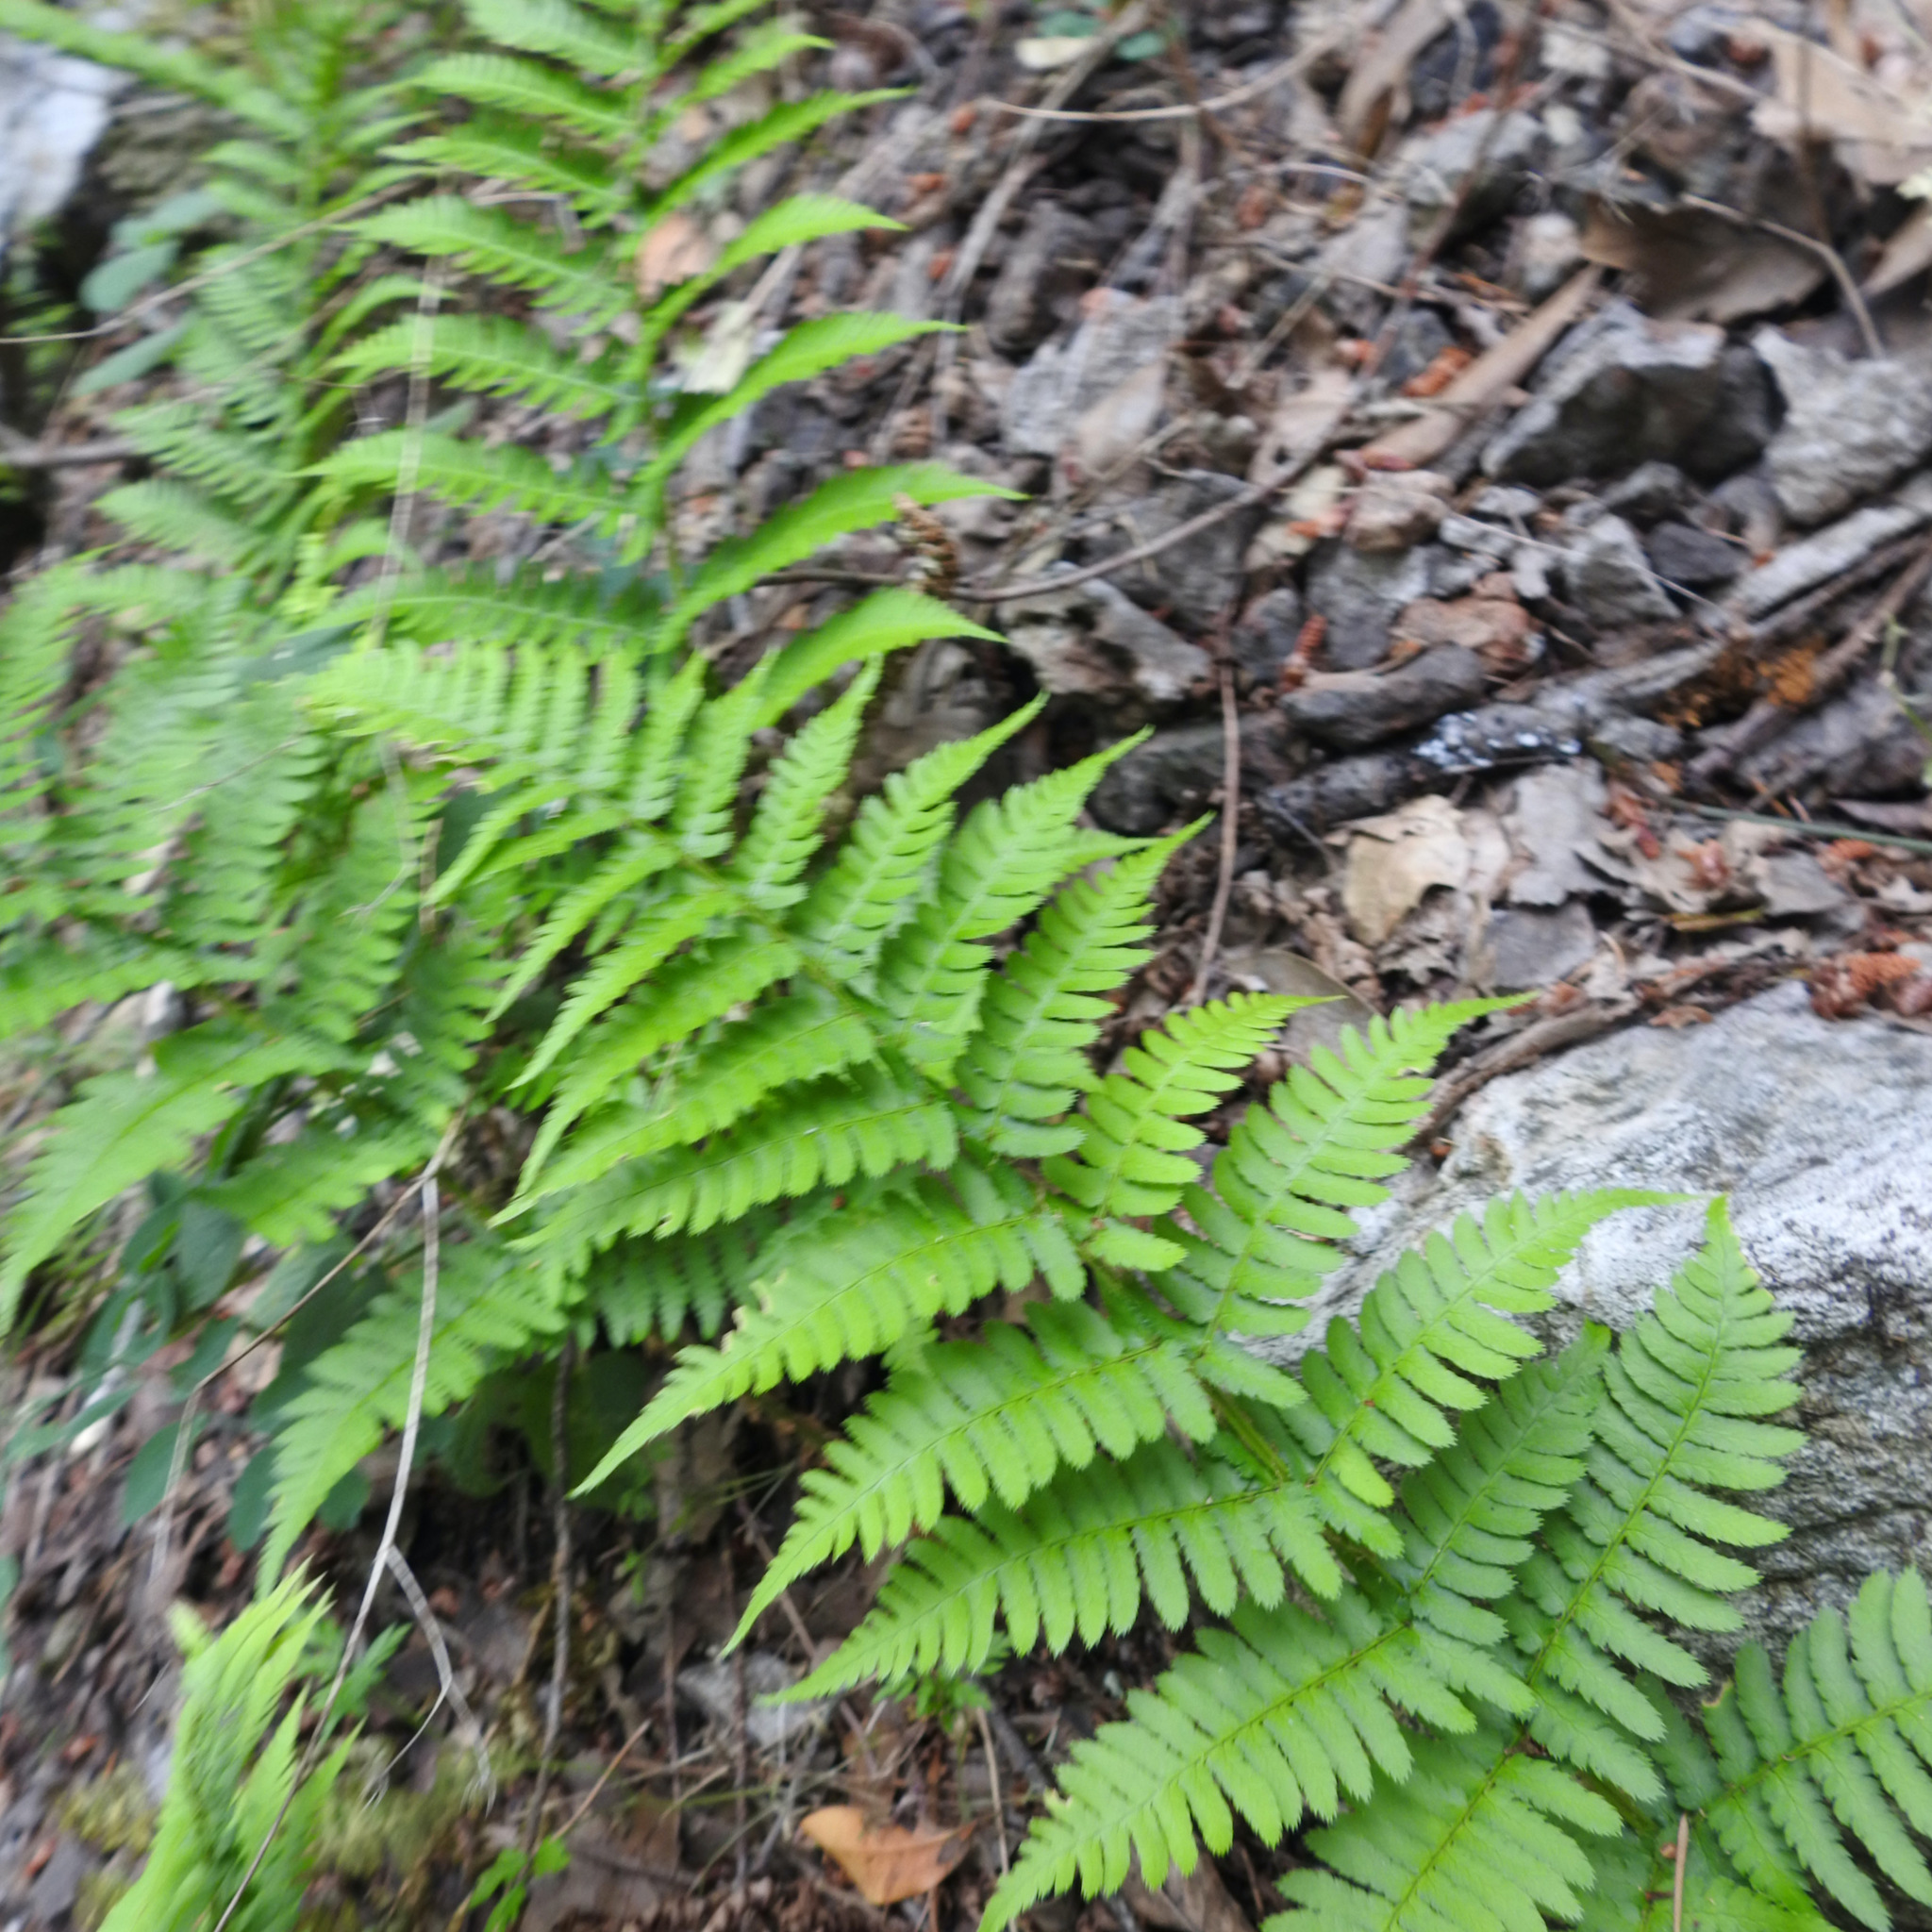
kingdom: Plantae
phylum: Tracheophyta
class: Polypodiopsida
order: Polypodiales
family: Dryopteridaceae
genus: Dryopteris
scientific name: Dryopteris arguta
